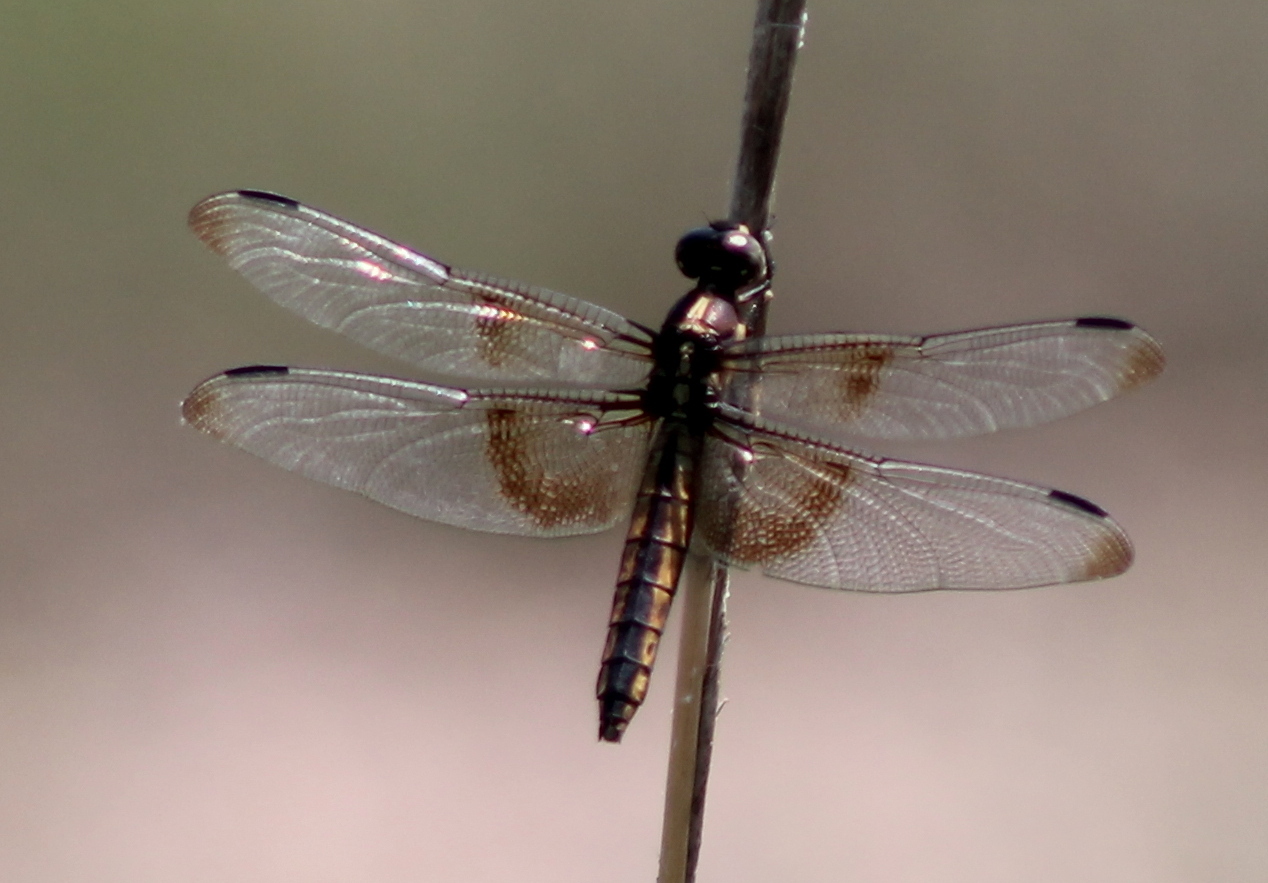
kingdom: Animalia
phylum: Arthropoda
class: Insecta
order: Odonata
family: Libellulidae
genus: Libellula
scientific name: Libellula luctuosa
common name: Widow skimmer
